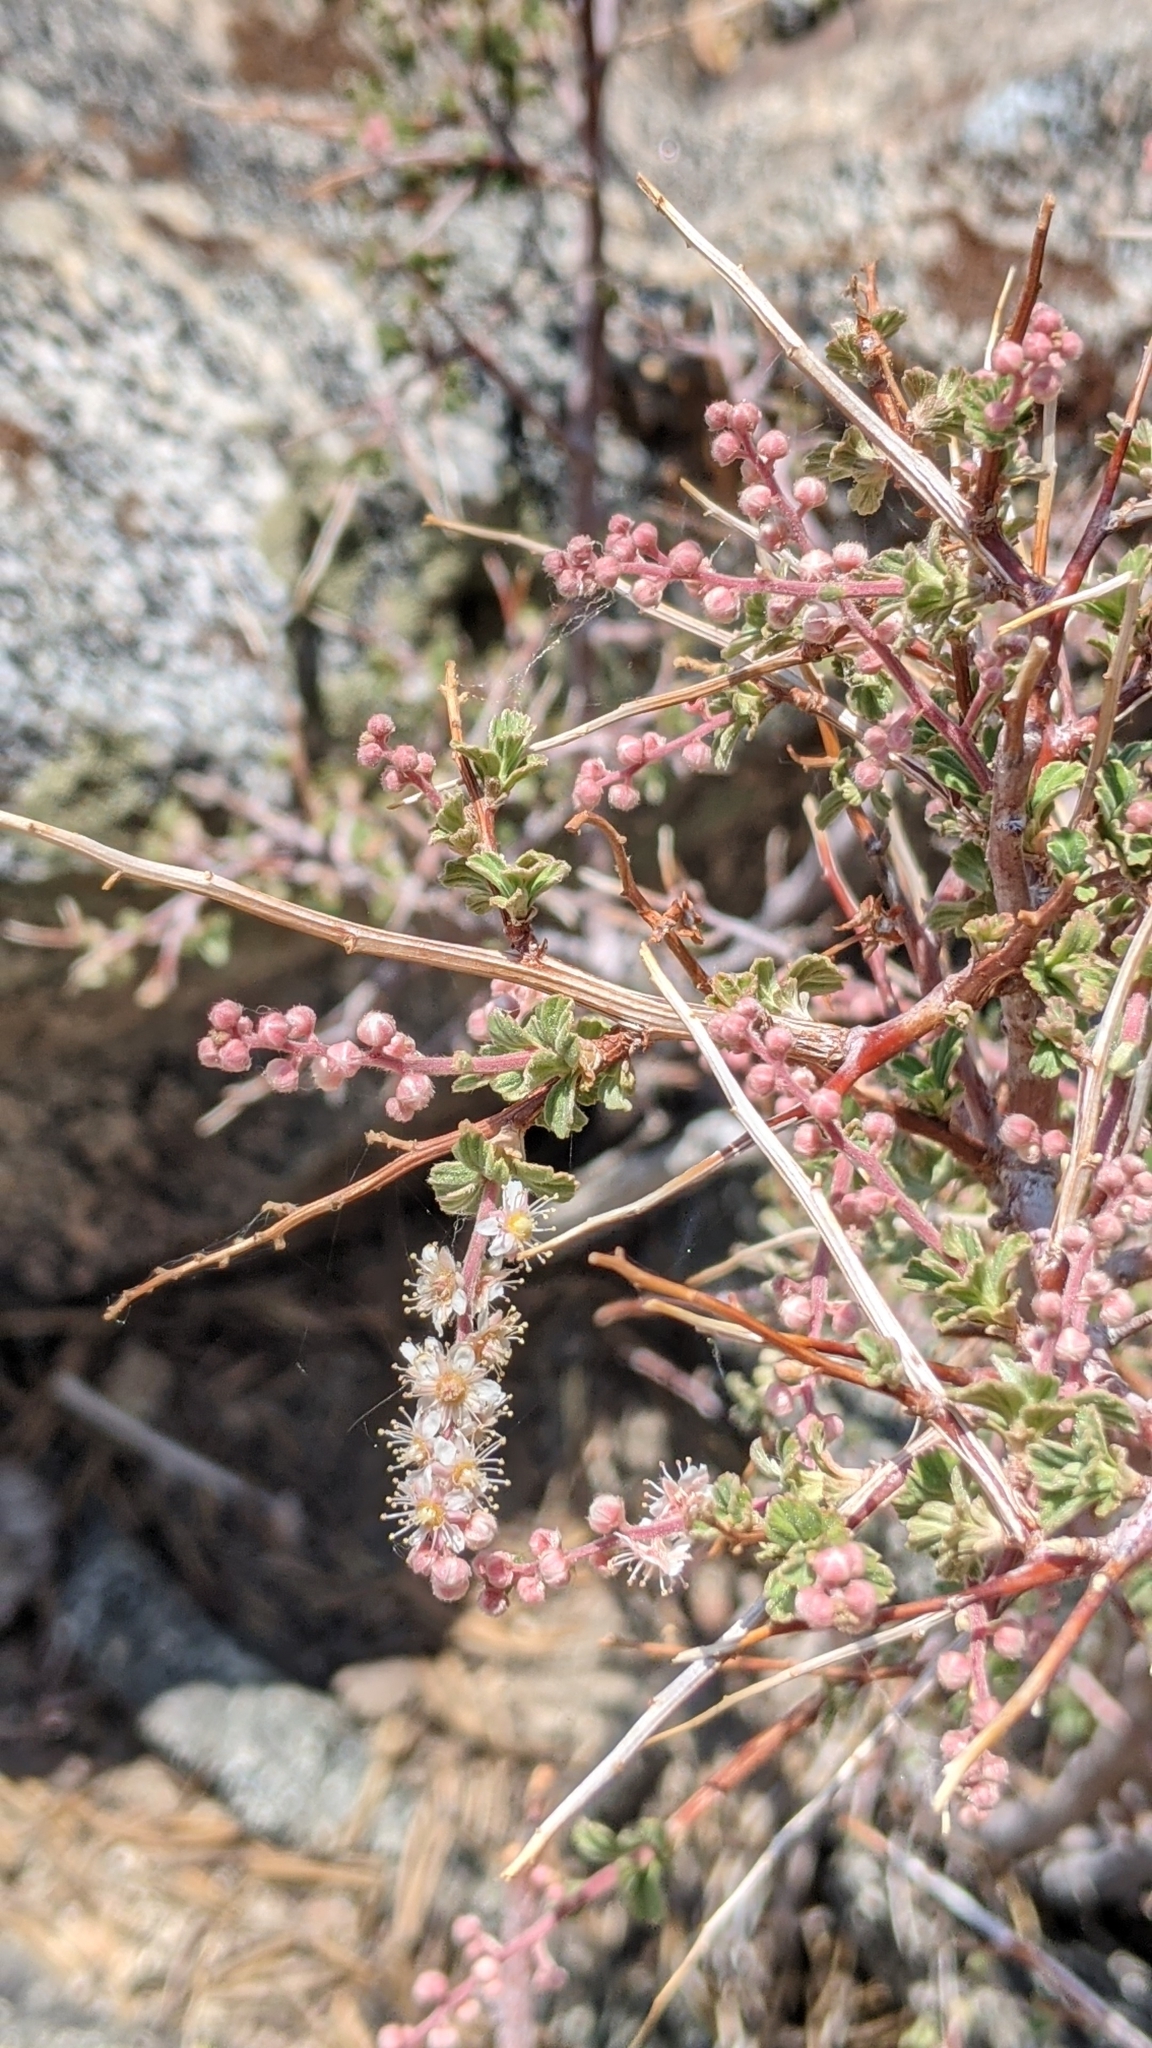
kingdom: Plantae
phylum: Tracheophyta
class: Magnoliopsida
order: Rosales
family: Rosaceae
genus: Holodiscus
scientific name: Holodiscus discolor
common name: Oceanspray
